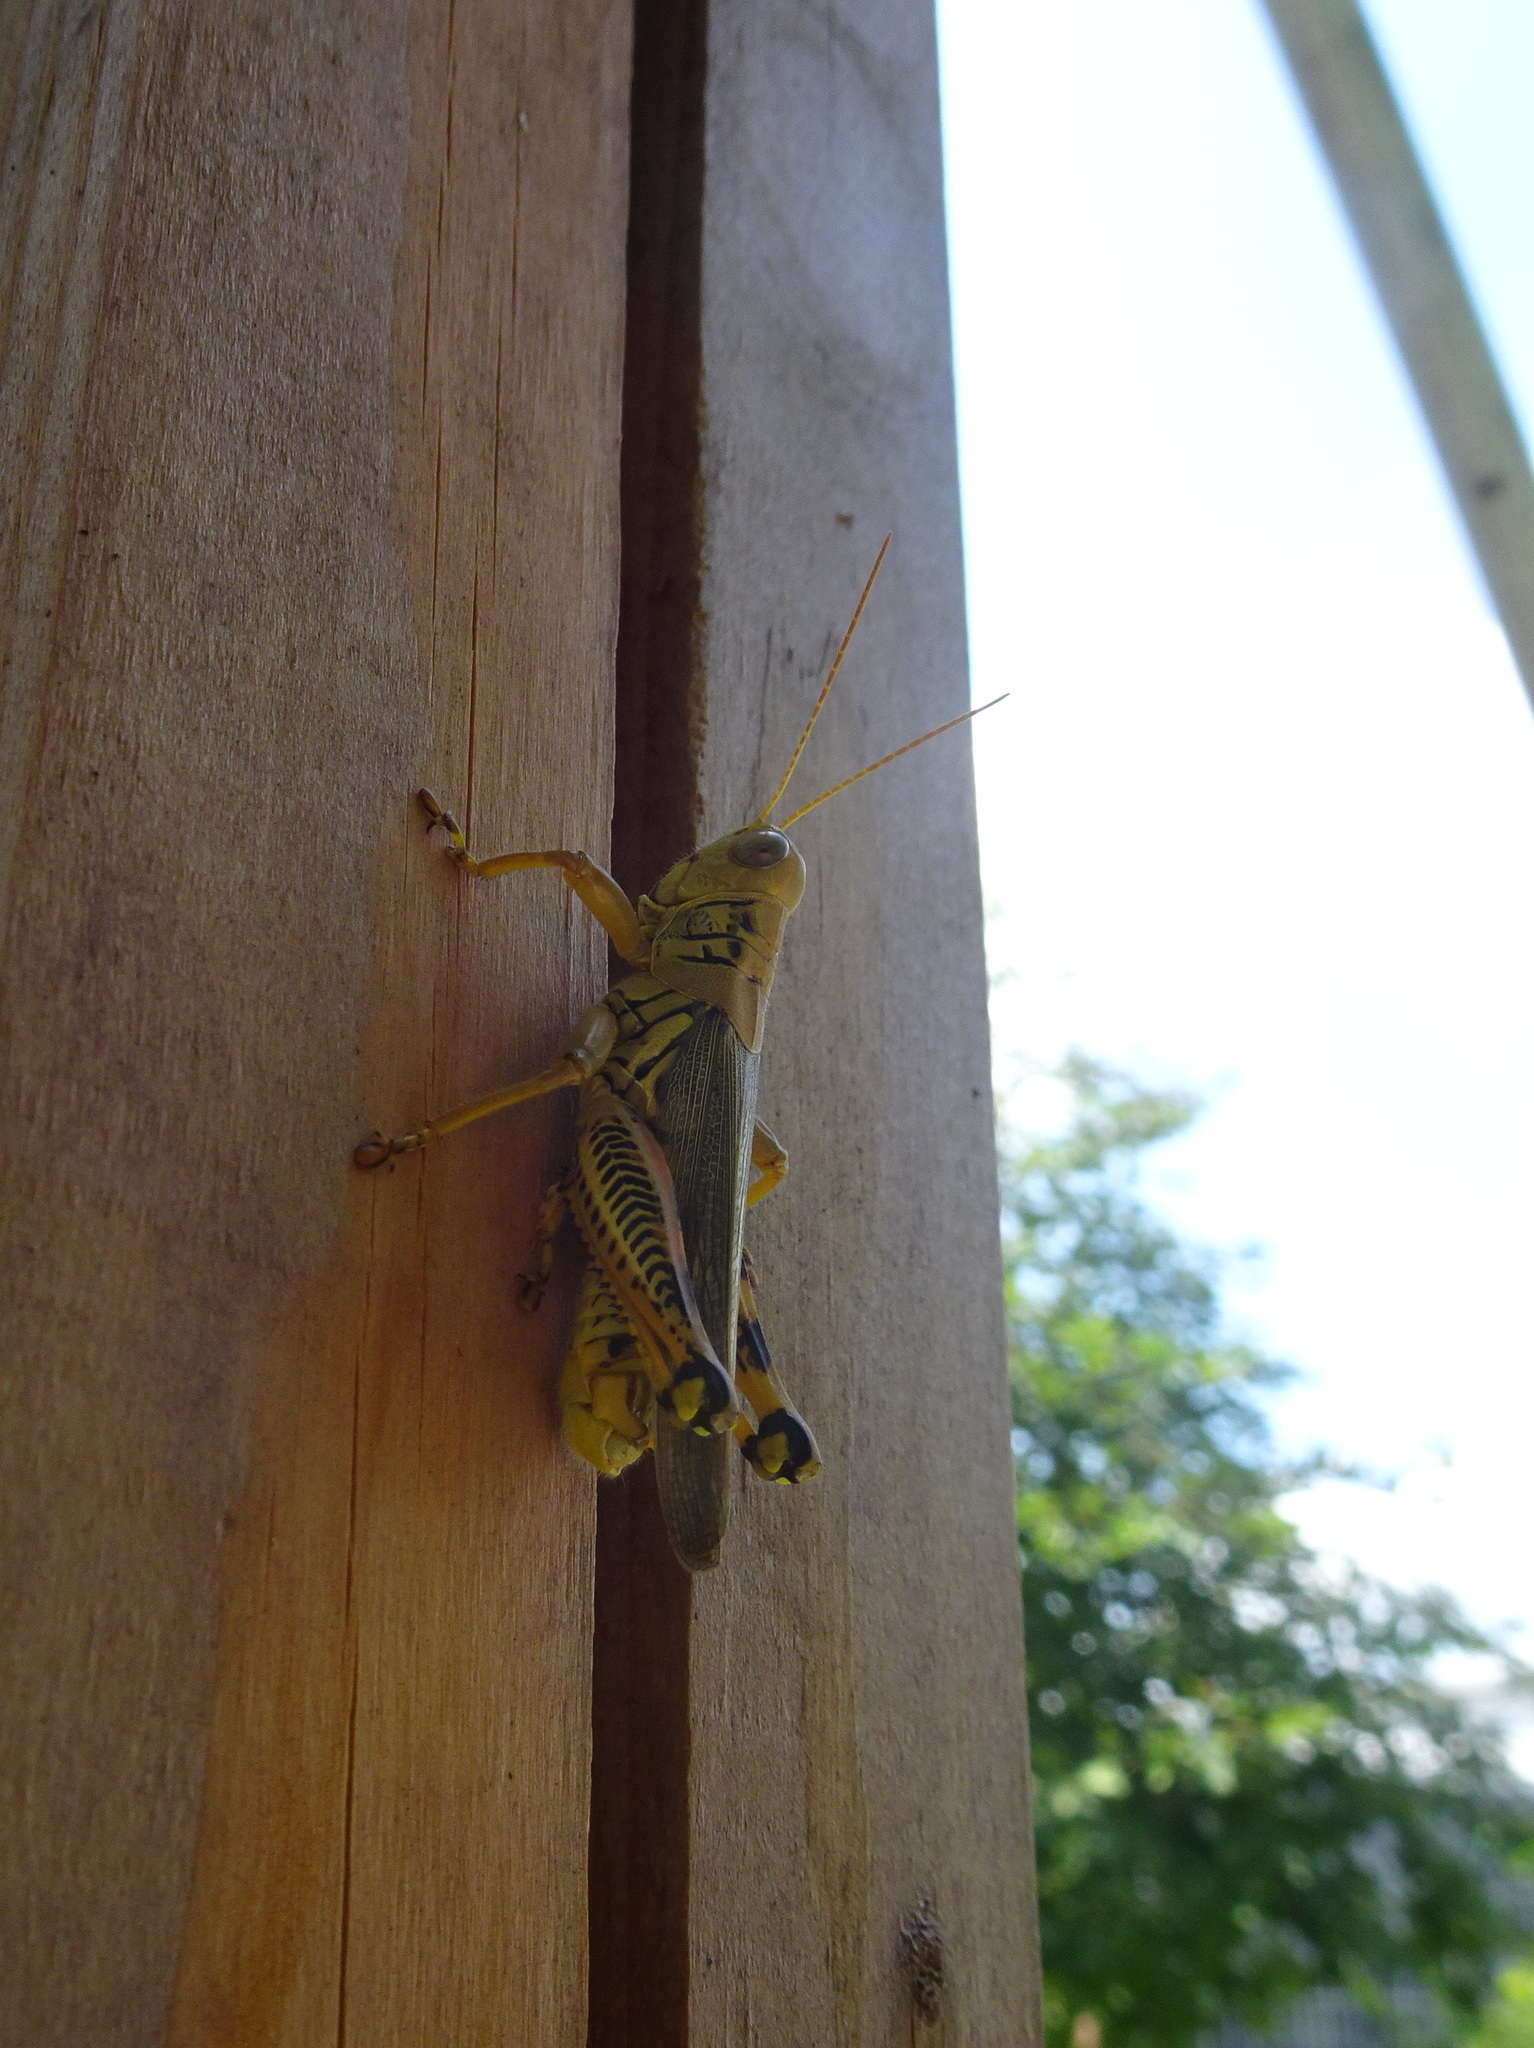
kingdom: Animalia
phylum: Arthropoda
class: Insecta
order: Orthoptera
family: Acrididae
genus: Melanoplus
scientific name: Melanoplus differentialis
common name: Differential grasshopper
